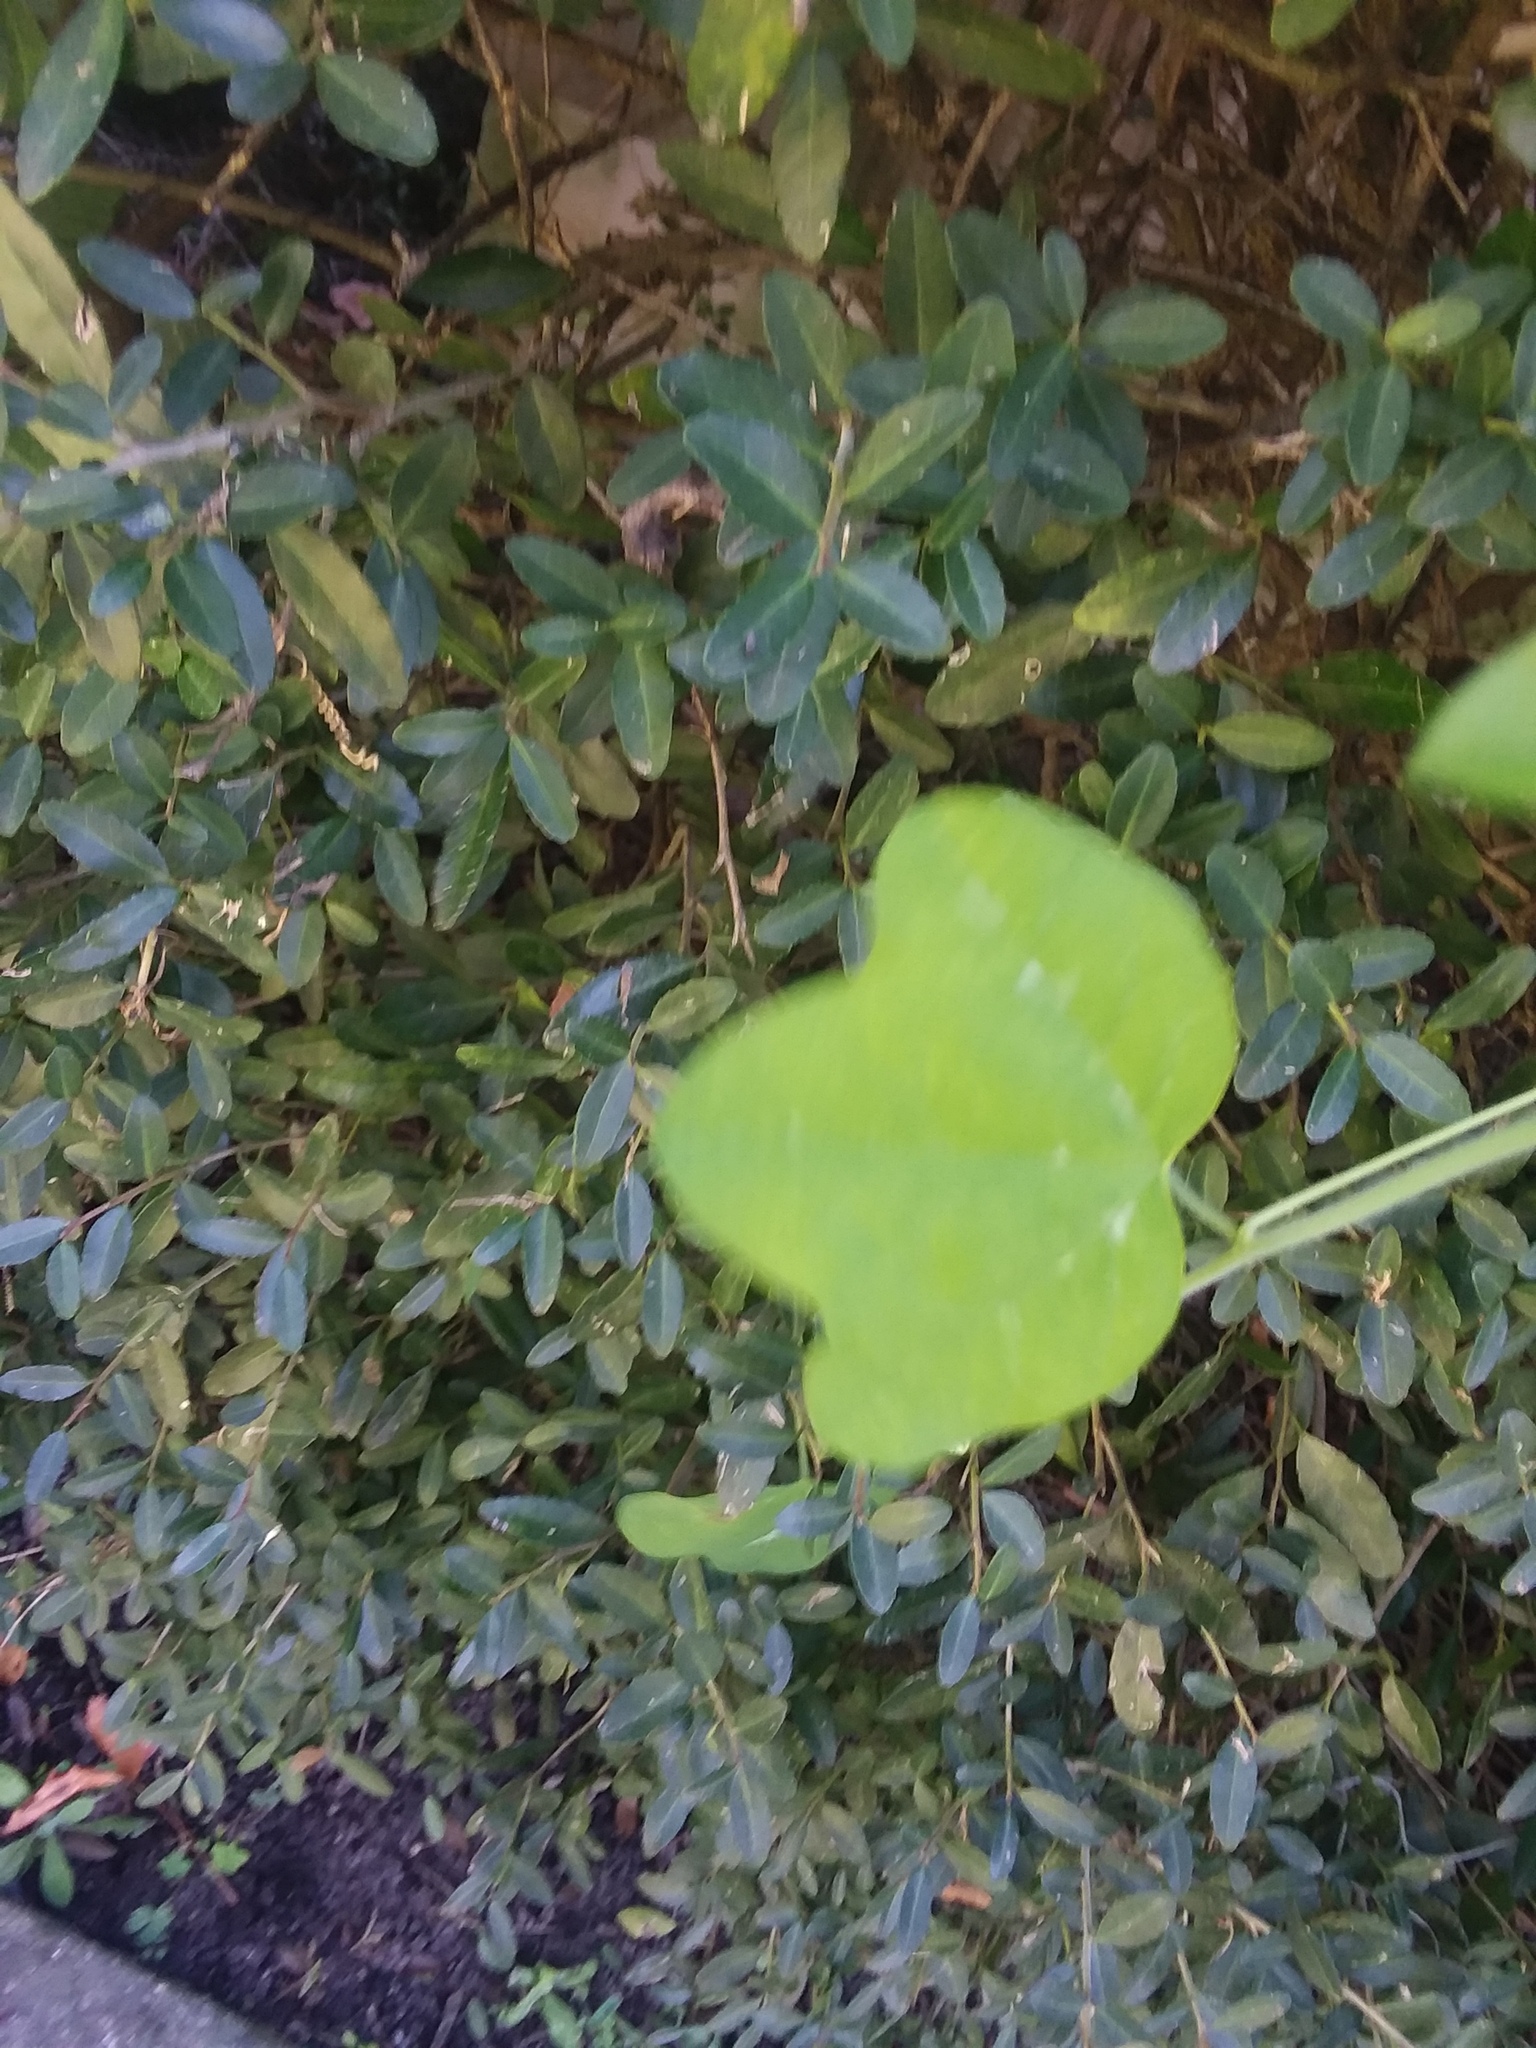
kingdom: Plantae
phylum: Tracheophyta
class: Magnoliopsida
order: Malpighiales
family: Passifloraceae
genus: Passiflora
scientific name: Passiflora lutea
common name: Yellow passionflower
